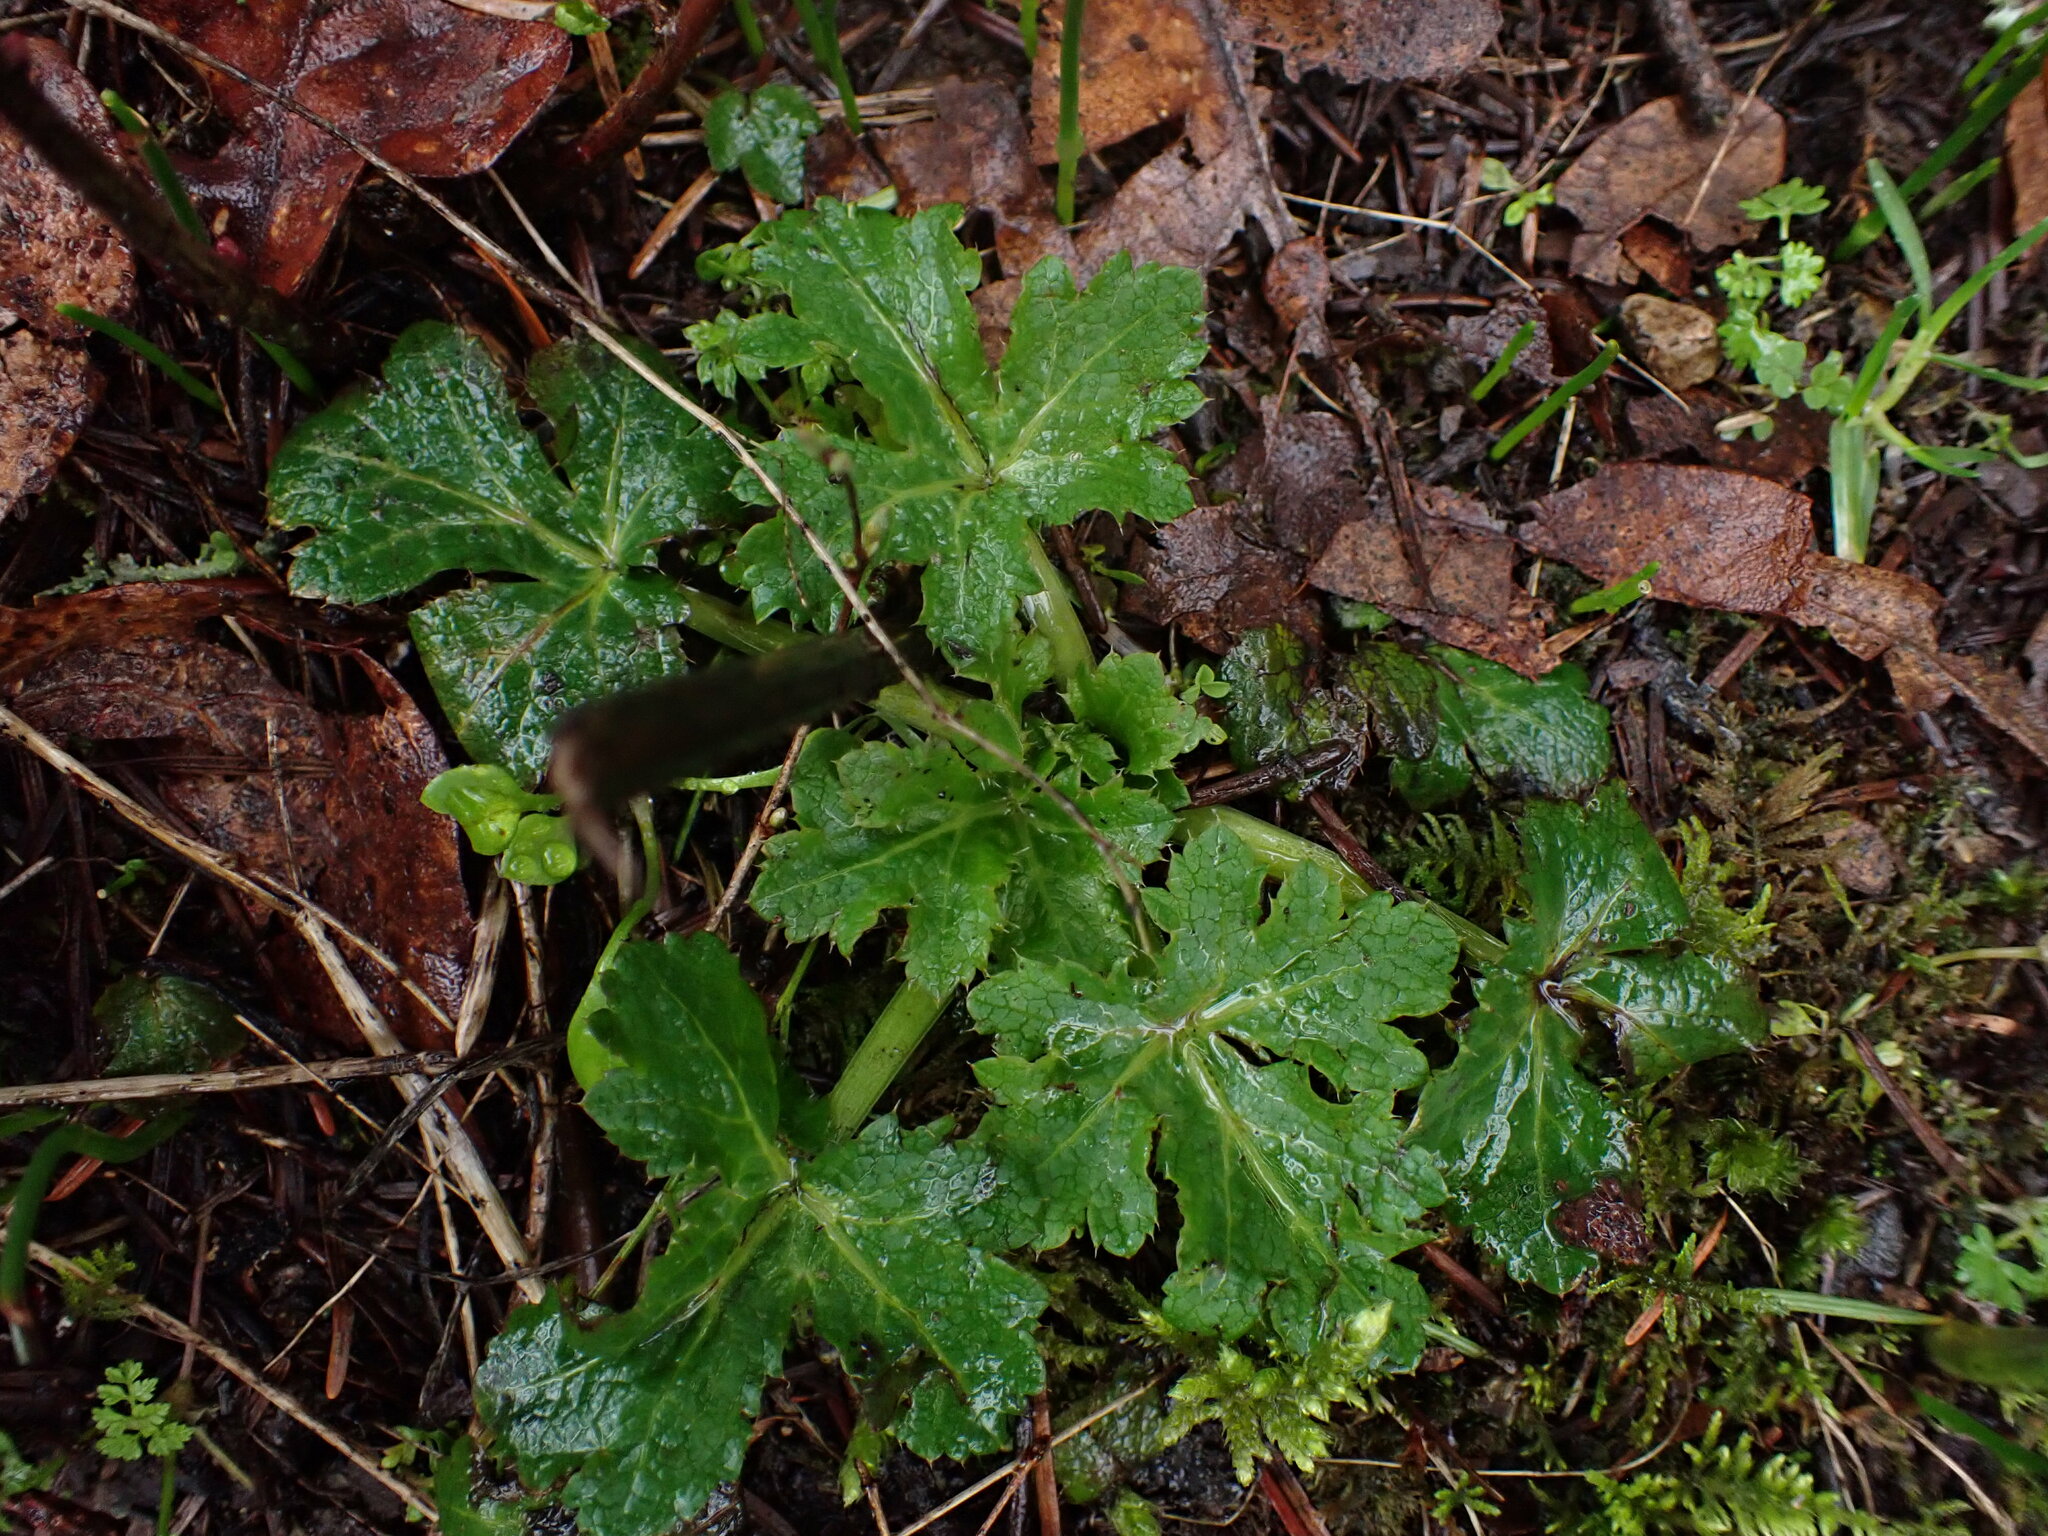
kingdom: Plantae
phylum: Tracheophyta
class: Magnoliopsida
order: Apiales
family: Apiaceae
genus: Sanicula
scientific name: Sanicula crassicaulis
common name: Western snakeroot
